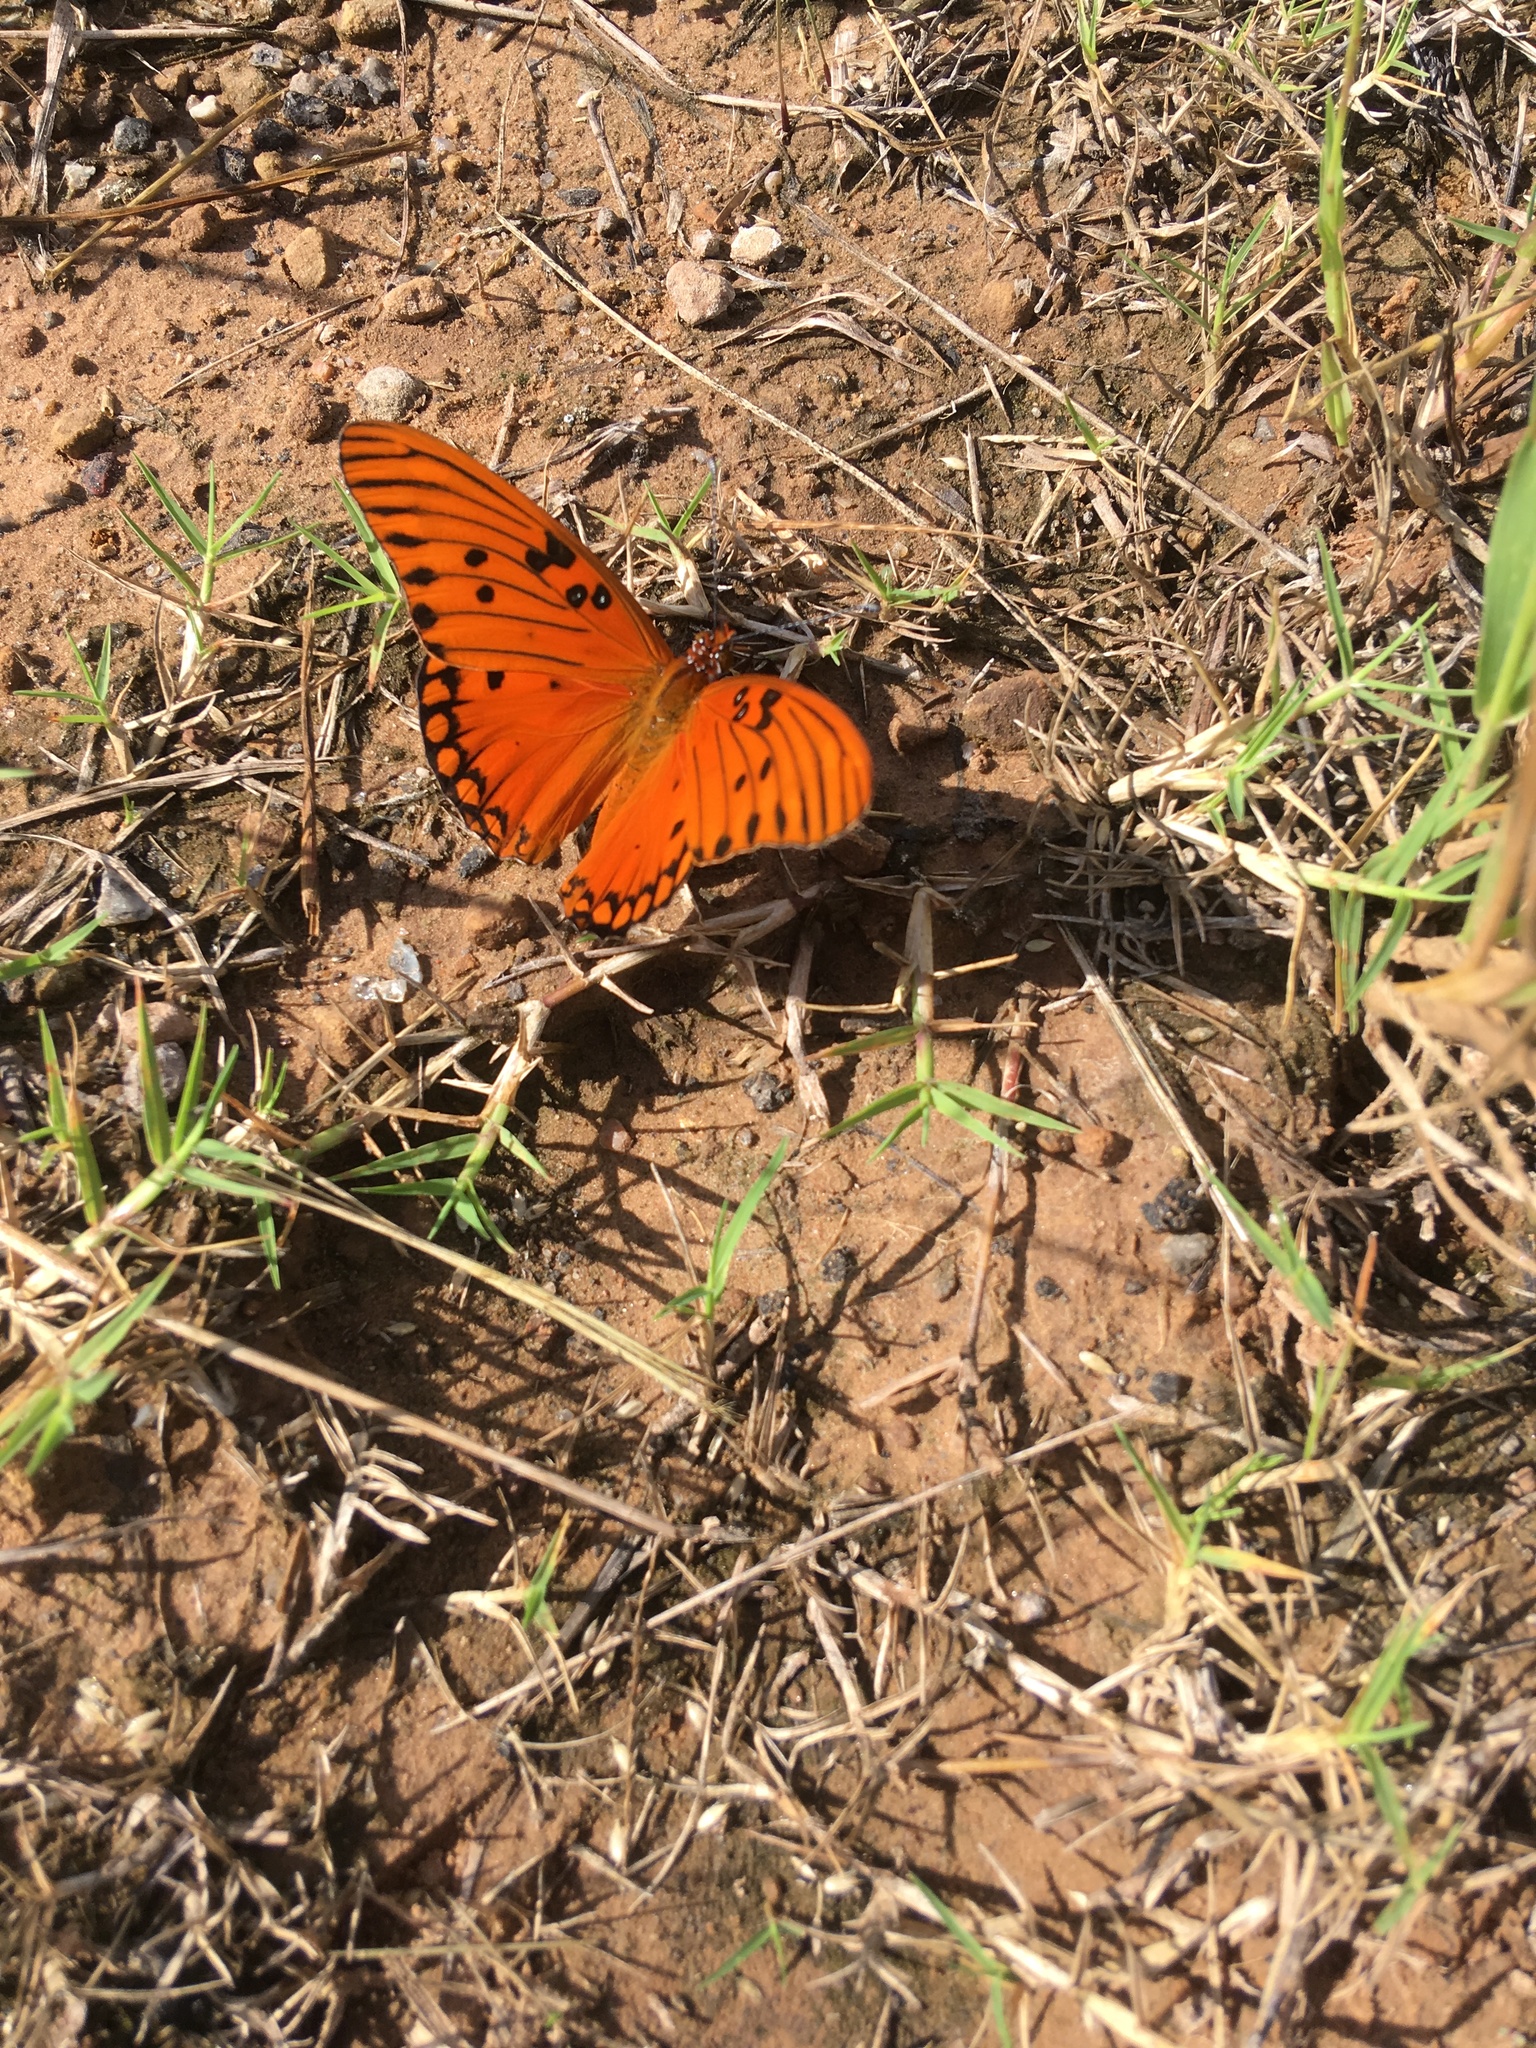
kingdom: Animalia
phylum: Arthropoda
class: Insecta
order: Lepidoptera
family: Nymphalidae
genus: Dione
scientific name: Dione vanillae
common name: Gulf fritillary
